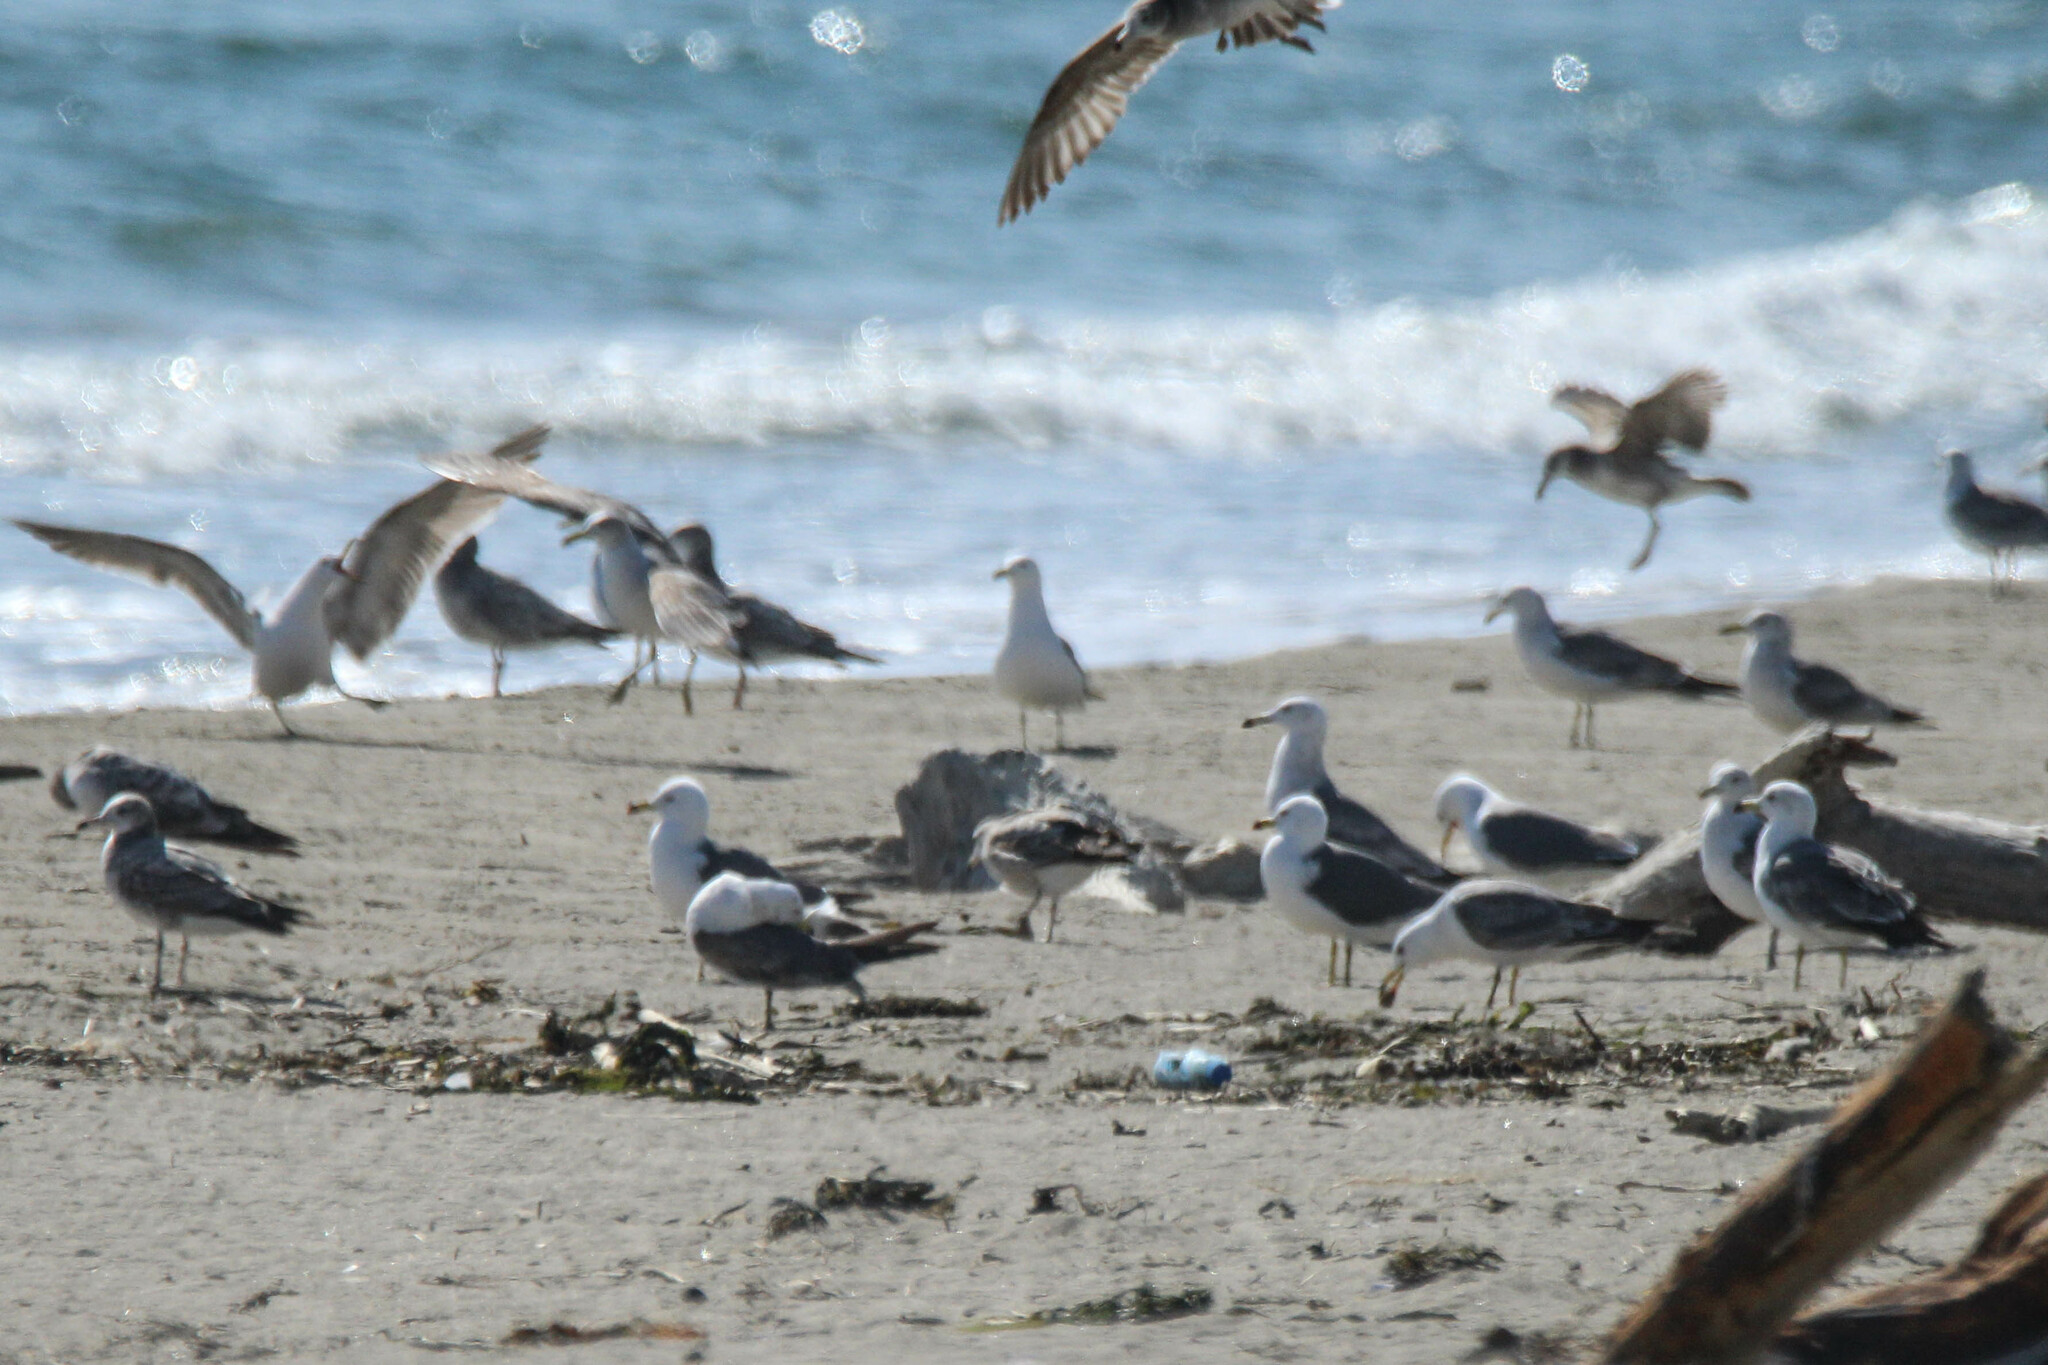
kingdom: Animalia
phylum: Chordata
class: Aves
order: Charadriiformes
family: Laridae
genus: Larus
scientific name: Larus crassirostris
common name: Black-tailed gull
